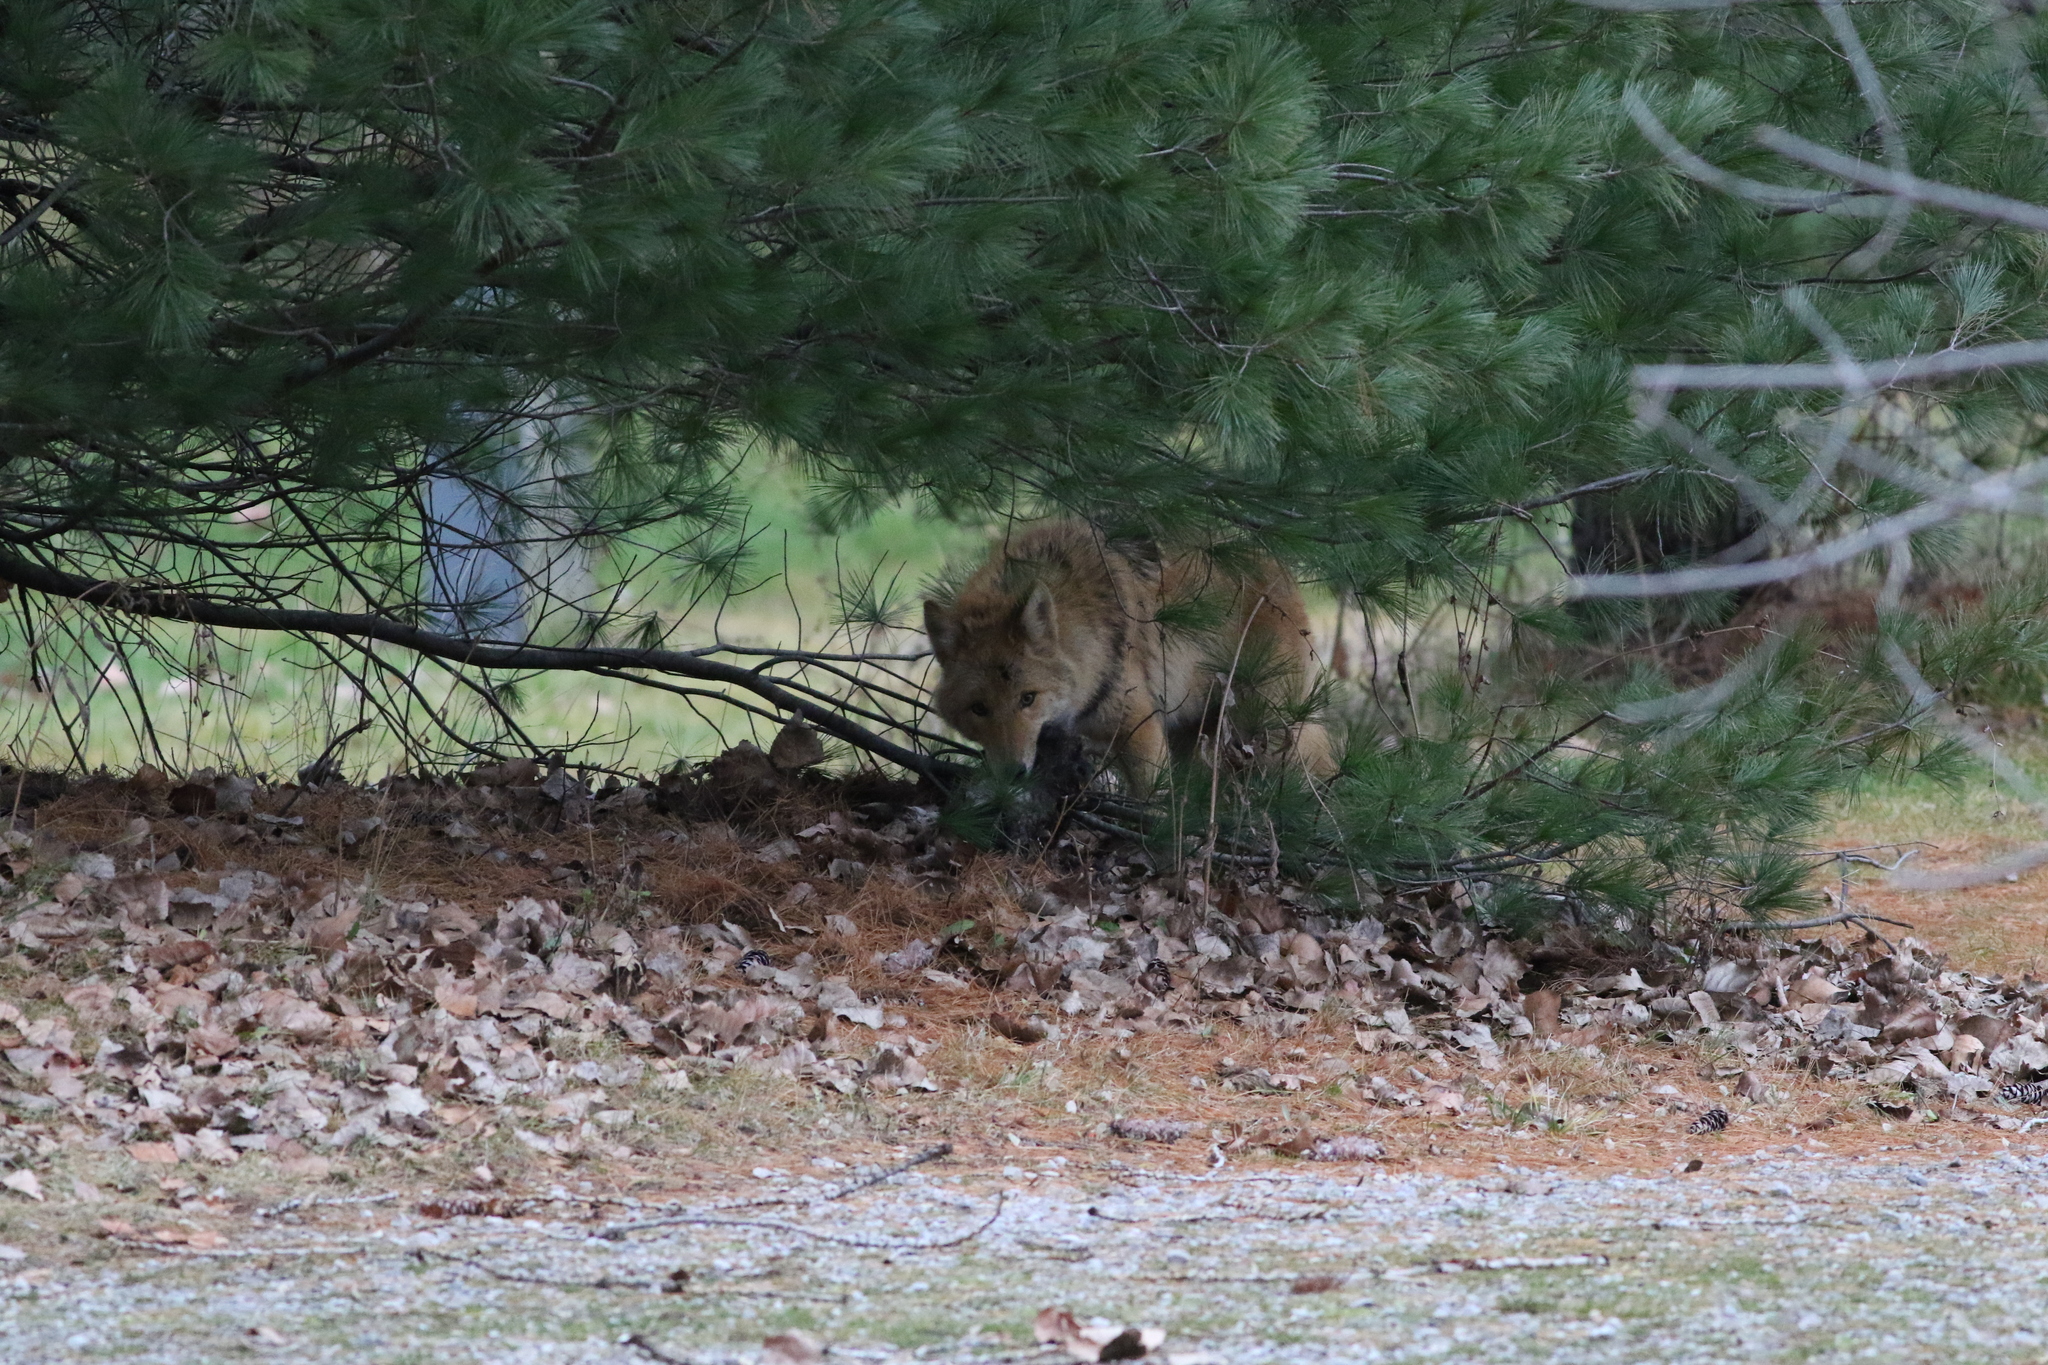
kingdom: Animalia
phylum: Chordata
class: Mammalia
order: Carnivora
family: Canidae
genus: Canis
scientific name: Canis latrans
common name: Coyote
